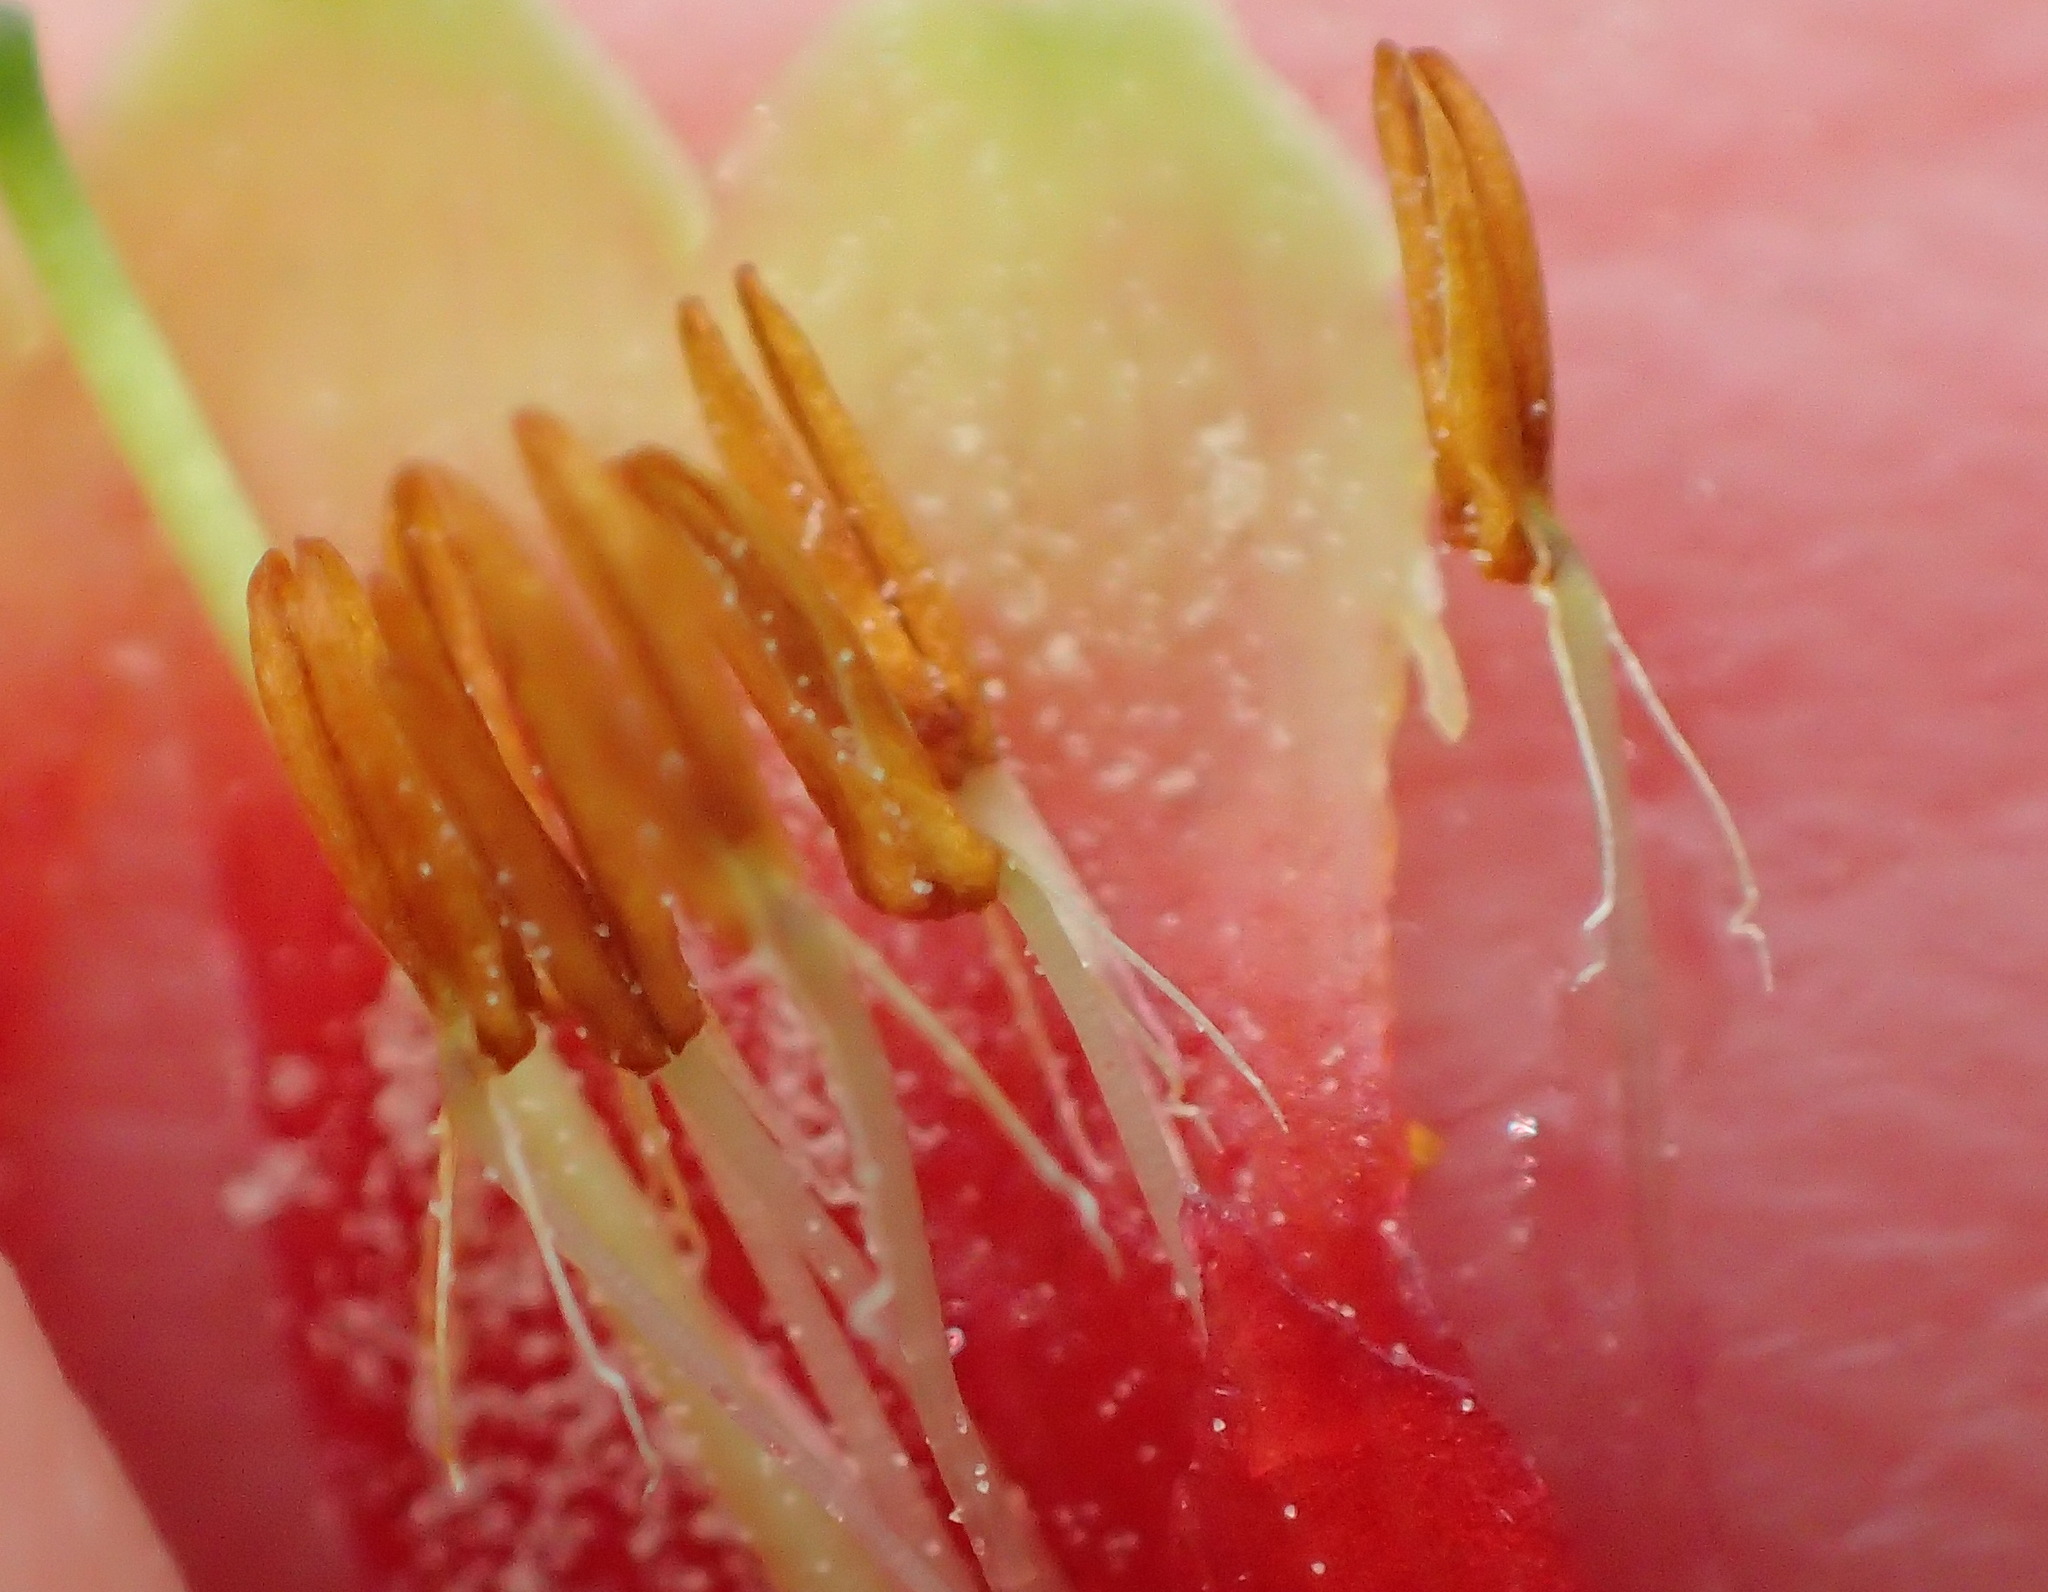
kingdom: Plantae
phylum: Tracheophyta
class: Magnoliopsida
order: Ericales
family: Ericaceae
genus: Erica
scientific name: Erica discolor
